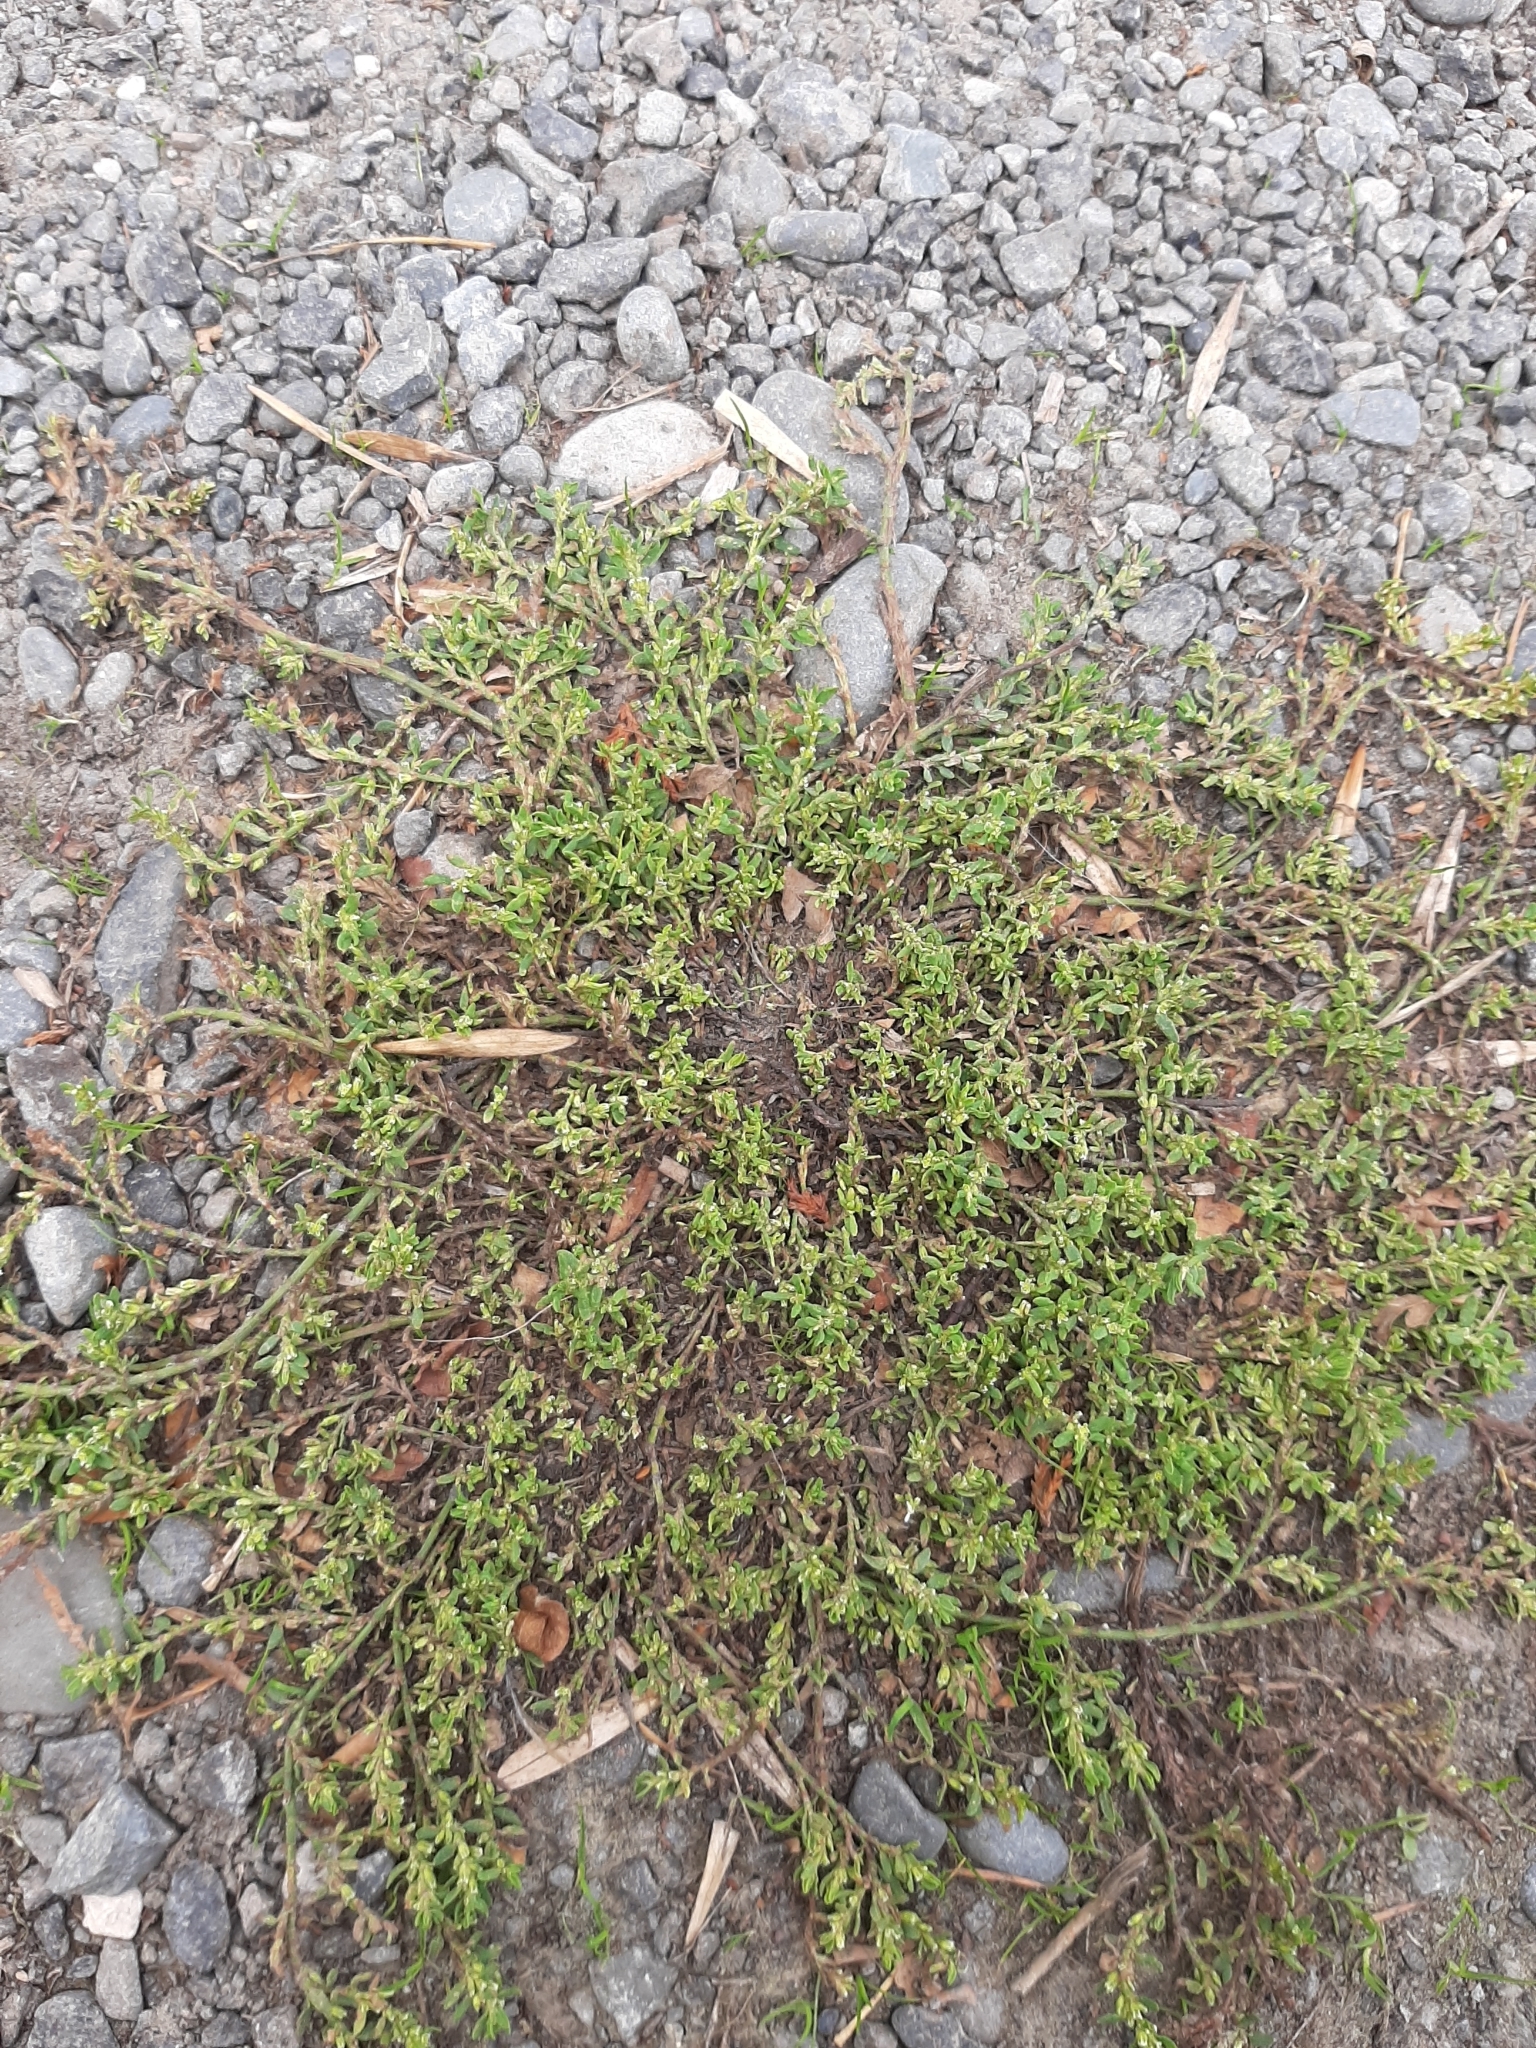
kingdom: Plantae
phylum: Tracheophyta
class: Magnoliopsida
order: Caryophyllales
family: Polygonaceae
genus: Polygonum
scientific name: Polygonum aviculare
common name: Prostrate knotweed
